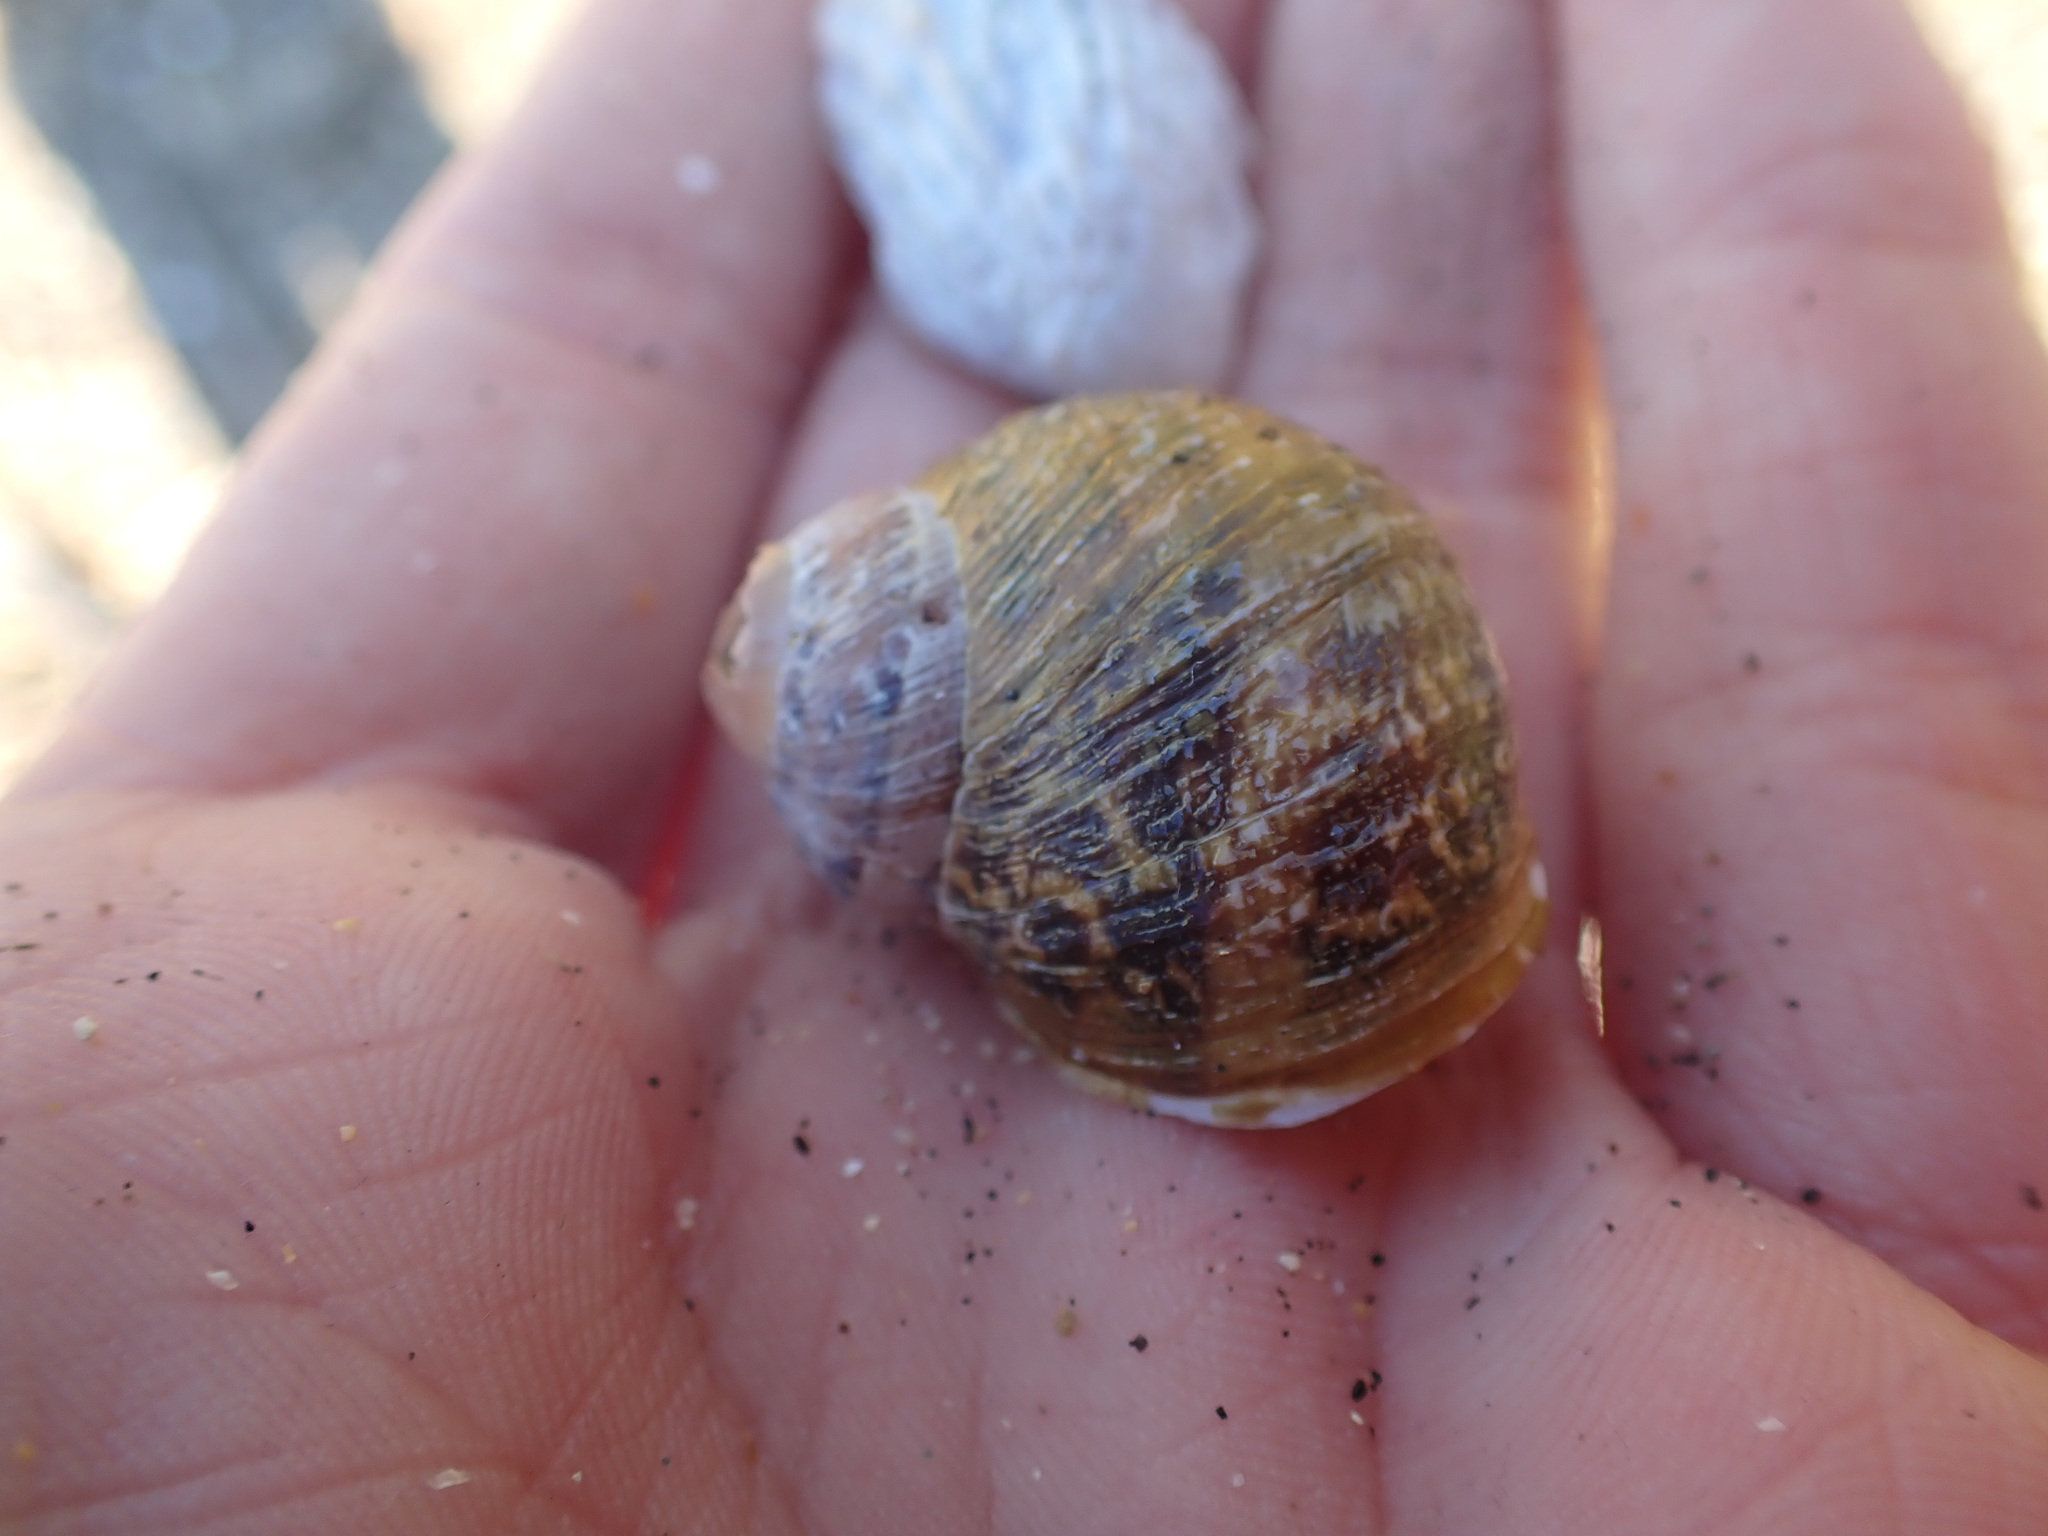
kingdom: Animalia
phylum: Mollusca
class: Gastropoda
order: Stylommatophora
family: Helicidae
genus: Cornu
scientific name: Cornu aspersum
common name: Brown garden snail
